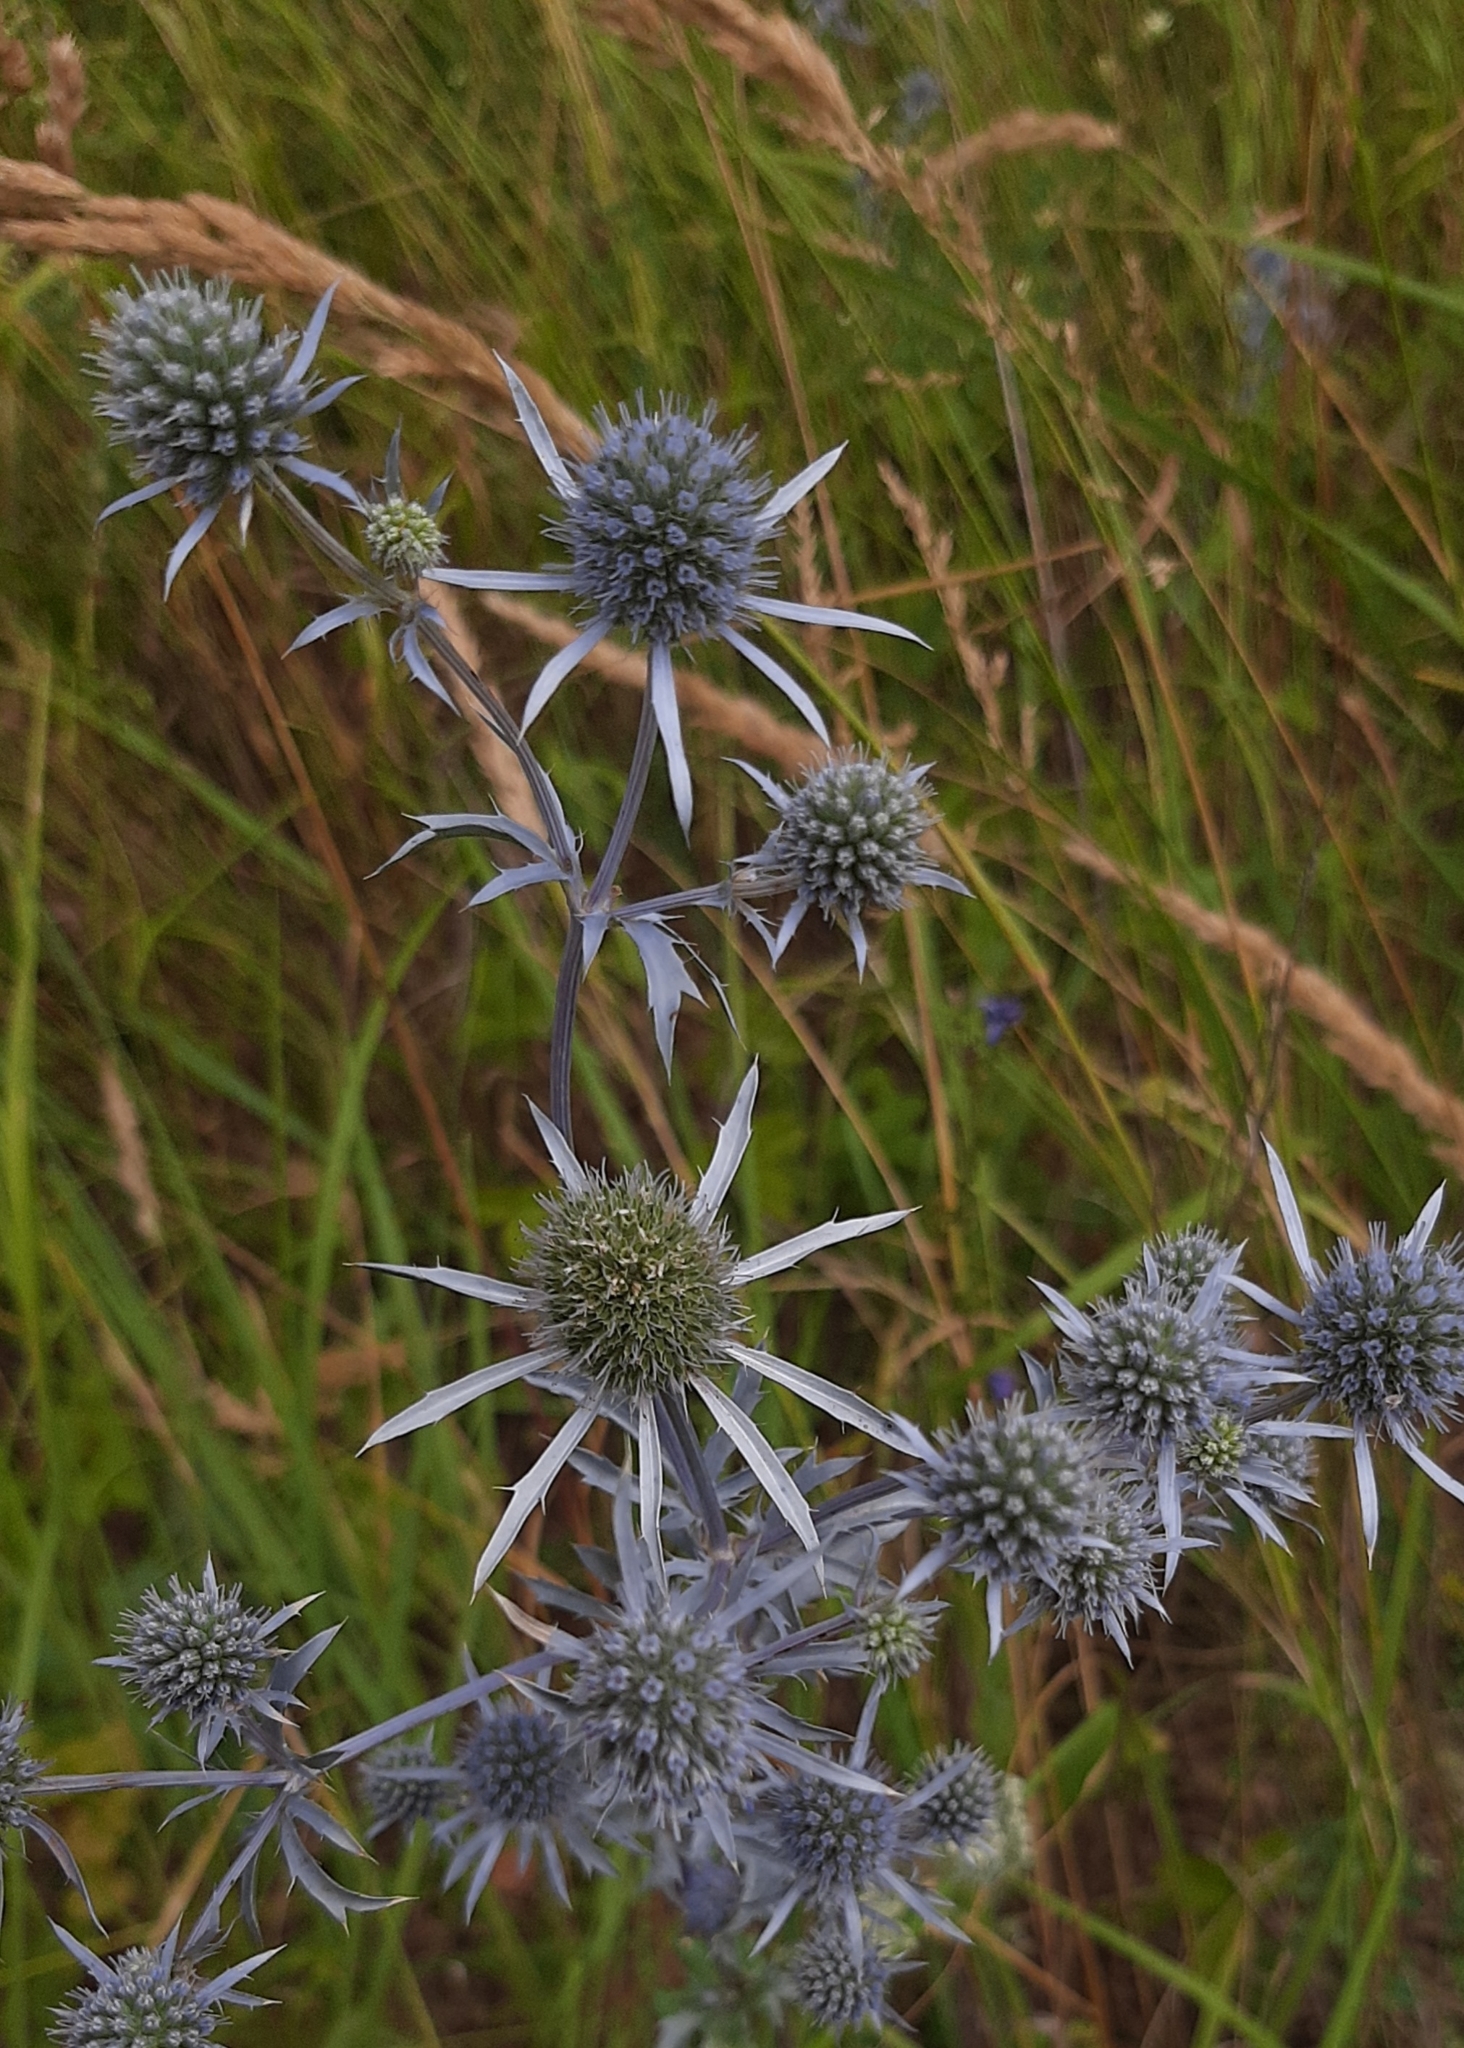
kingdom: Plantae
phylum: Tracheophyta
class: Magnoliopsida
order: Apiales
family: Apiaceae
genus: Eryngium
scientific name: Eryngium planum
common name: Blue eryngo
